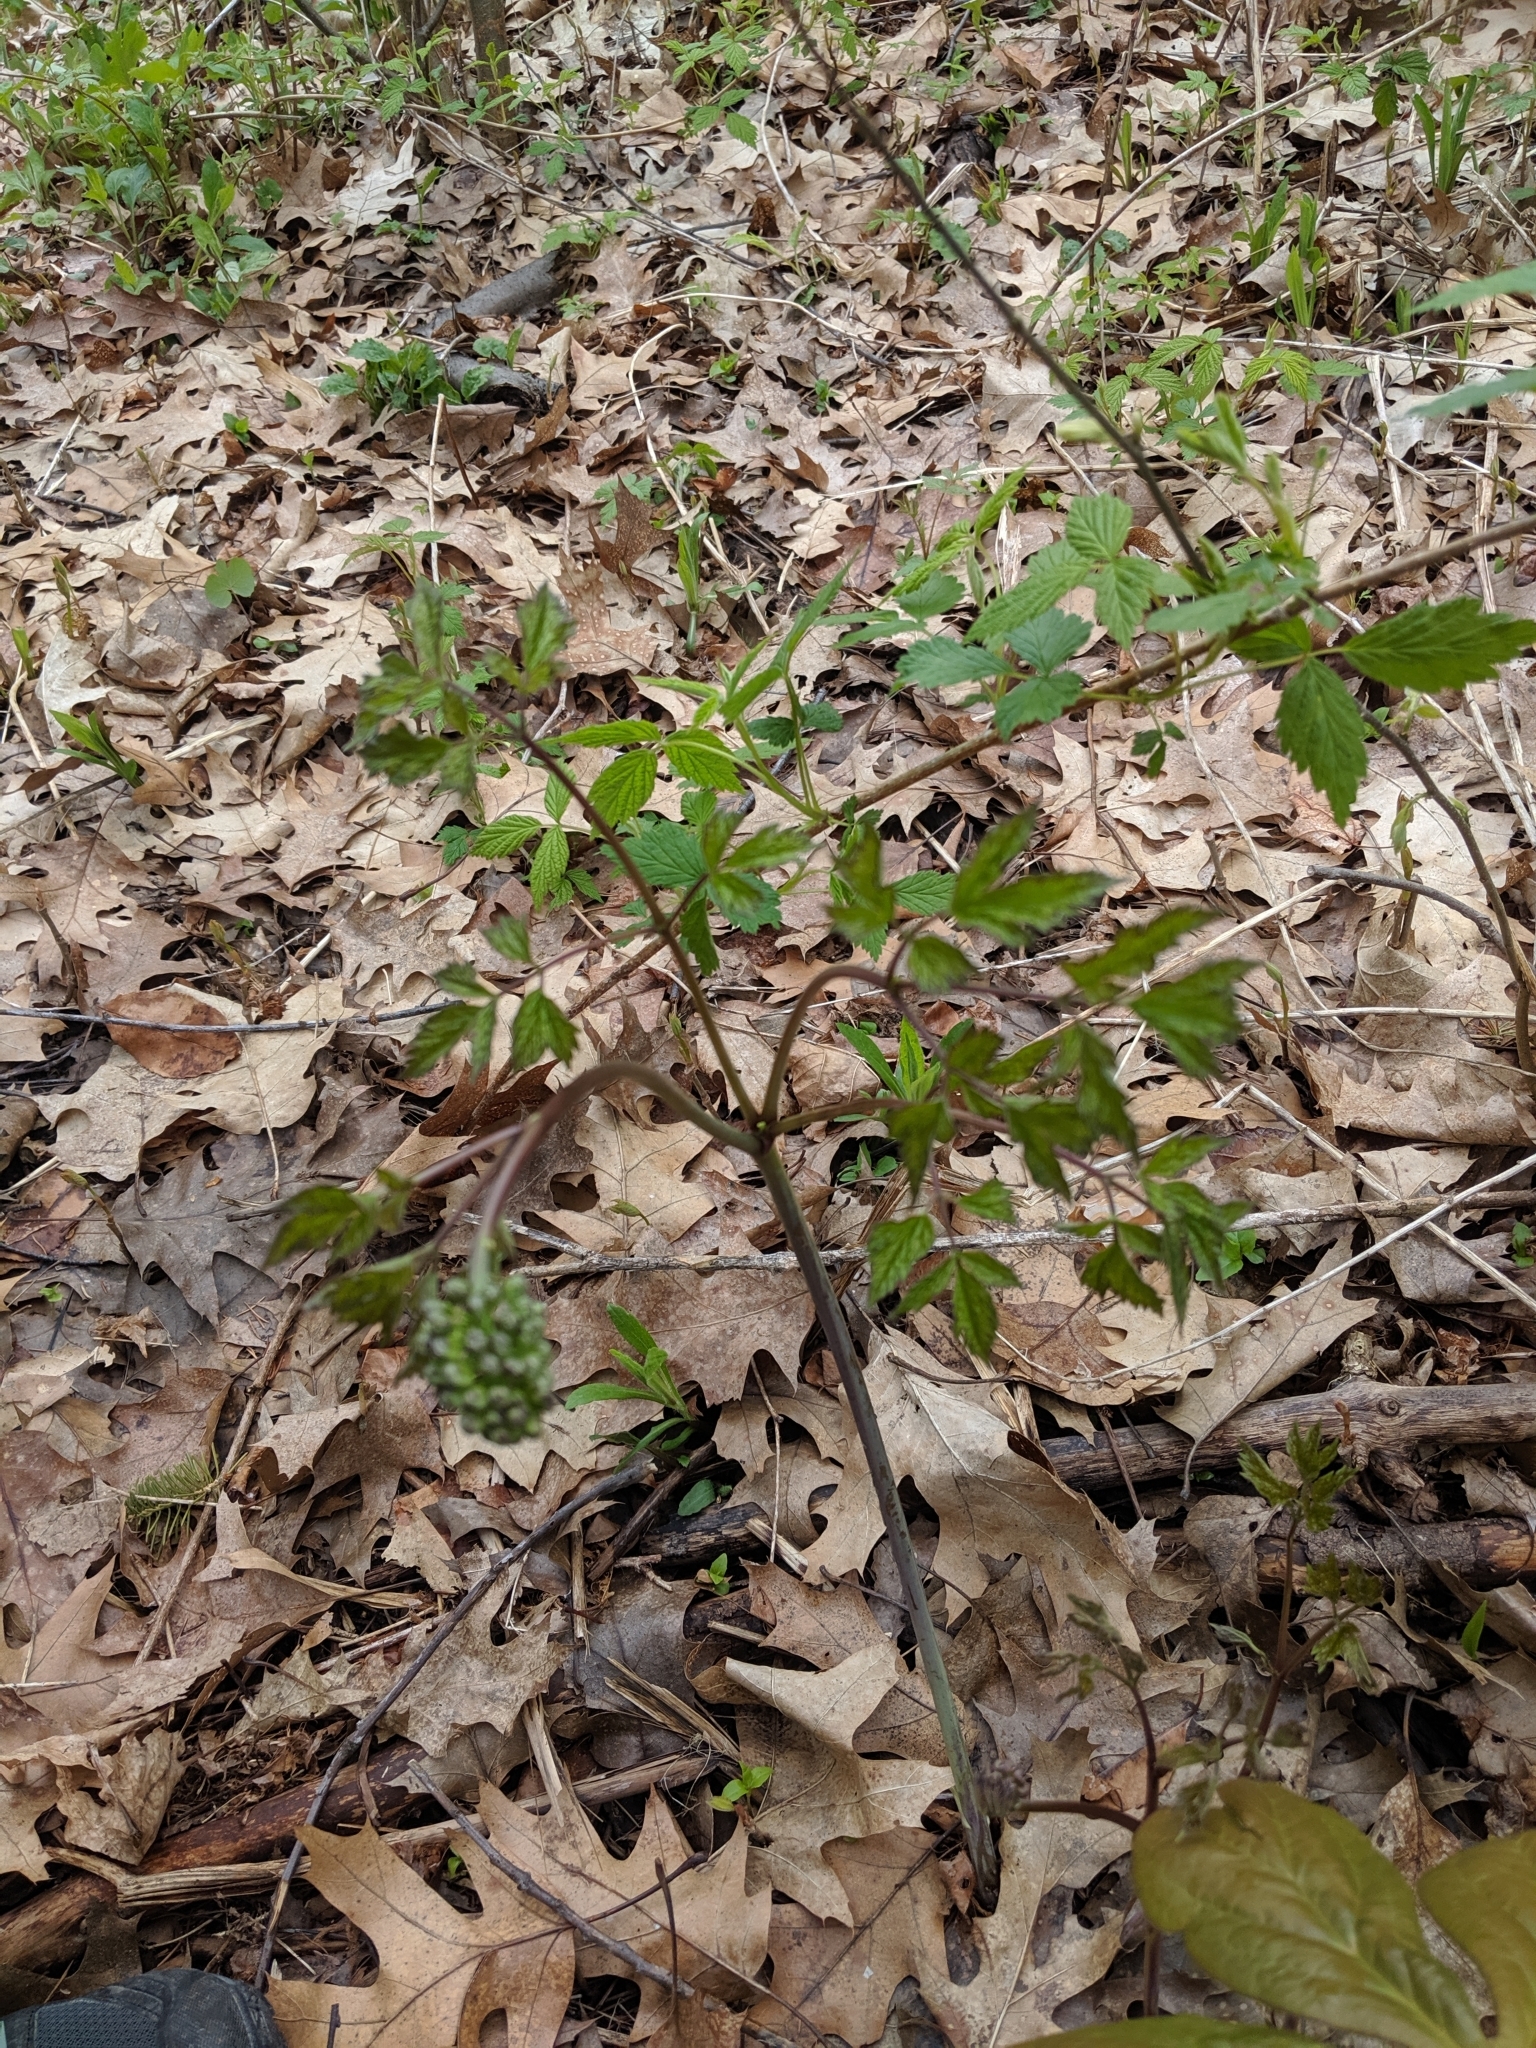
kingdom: Plantae
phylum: Tracheophyta
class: Magnoliopsida
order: Ranunculales
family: Ranunculaceae
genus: Actaea
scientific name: Actaea rubra
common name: Red baneberry
